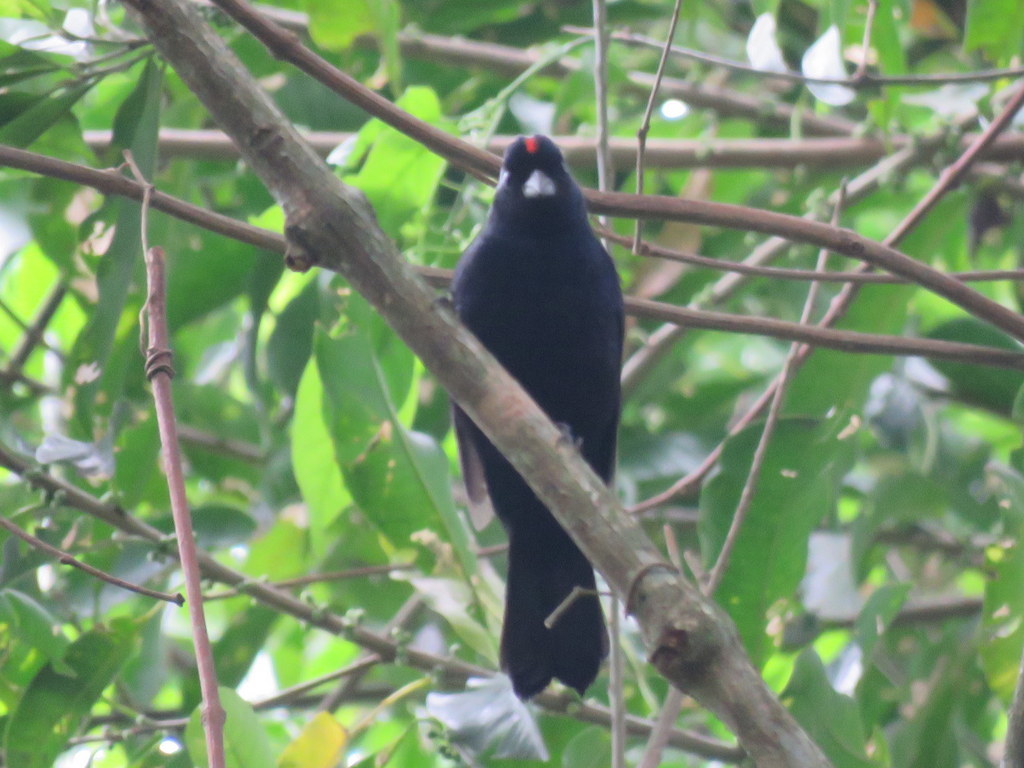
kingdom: Animalia
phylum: Chordata
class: Aves
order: Passeriformes
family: Thraupidae
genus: Tachyphonus
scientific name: Tachyphonus coronatus
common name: Ruby-crowned tanager
